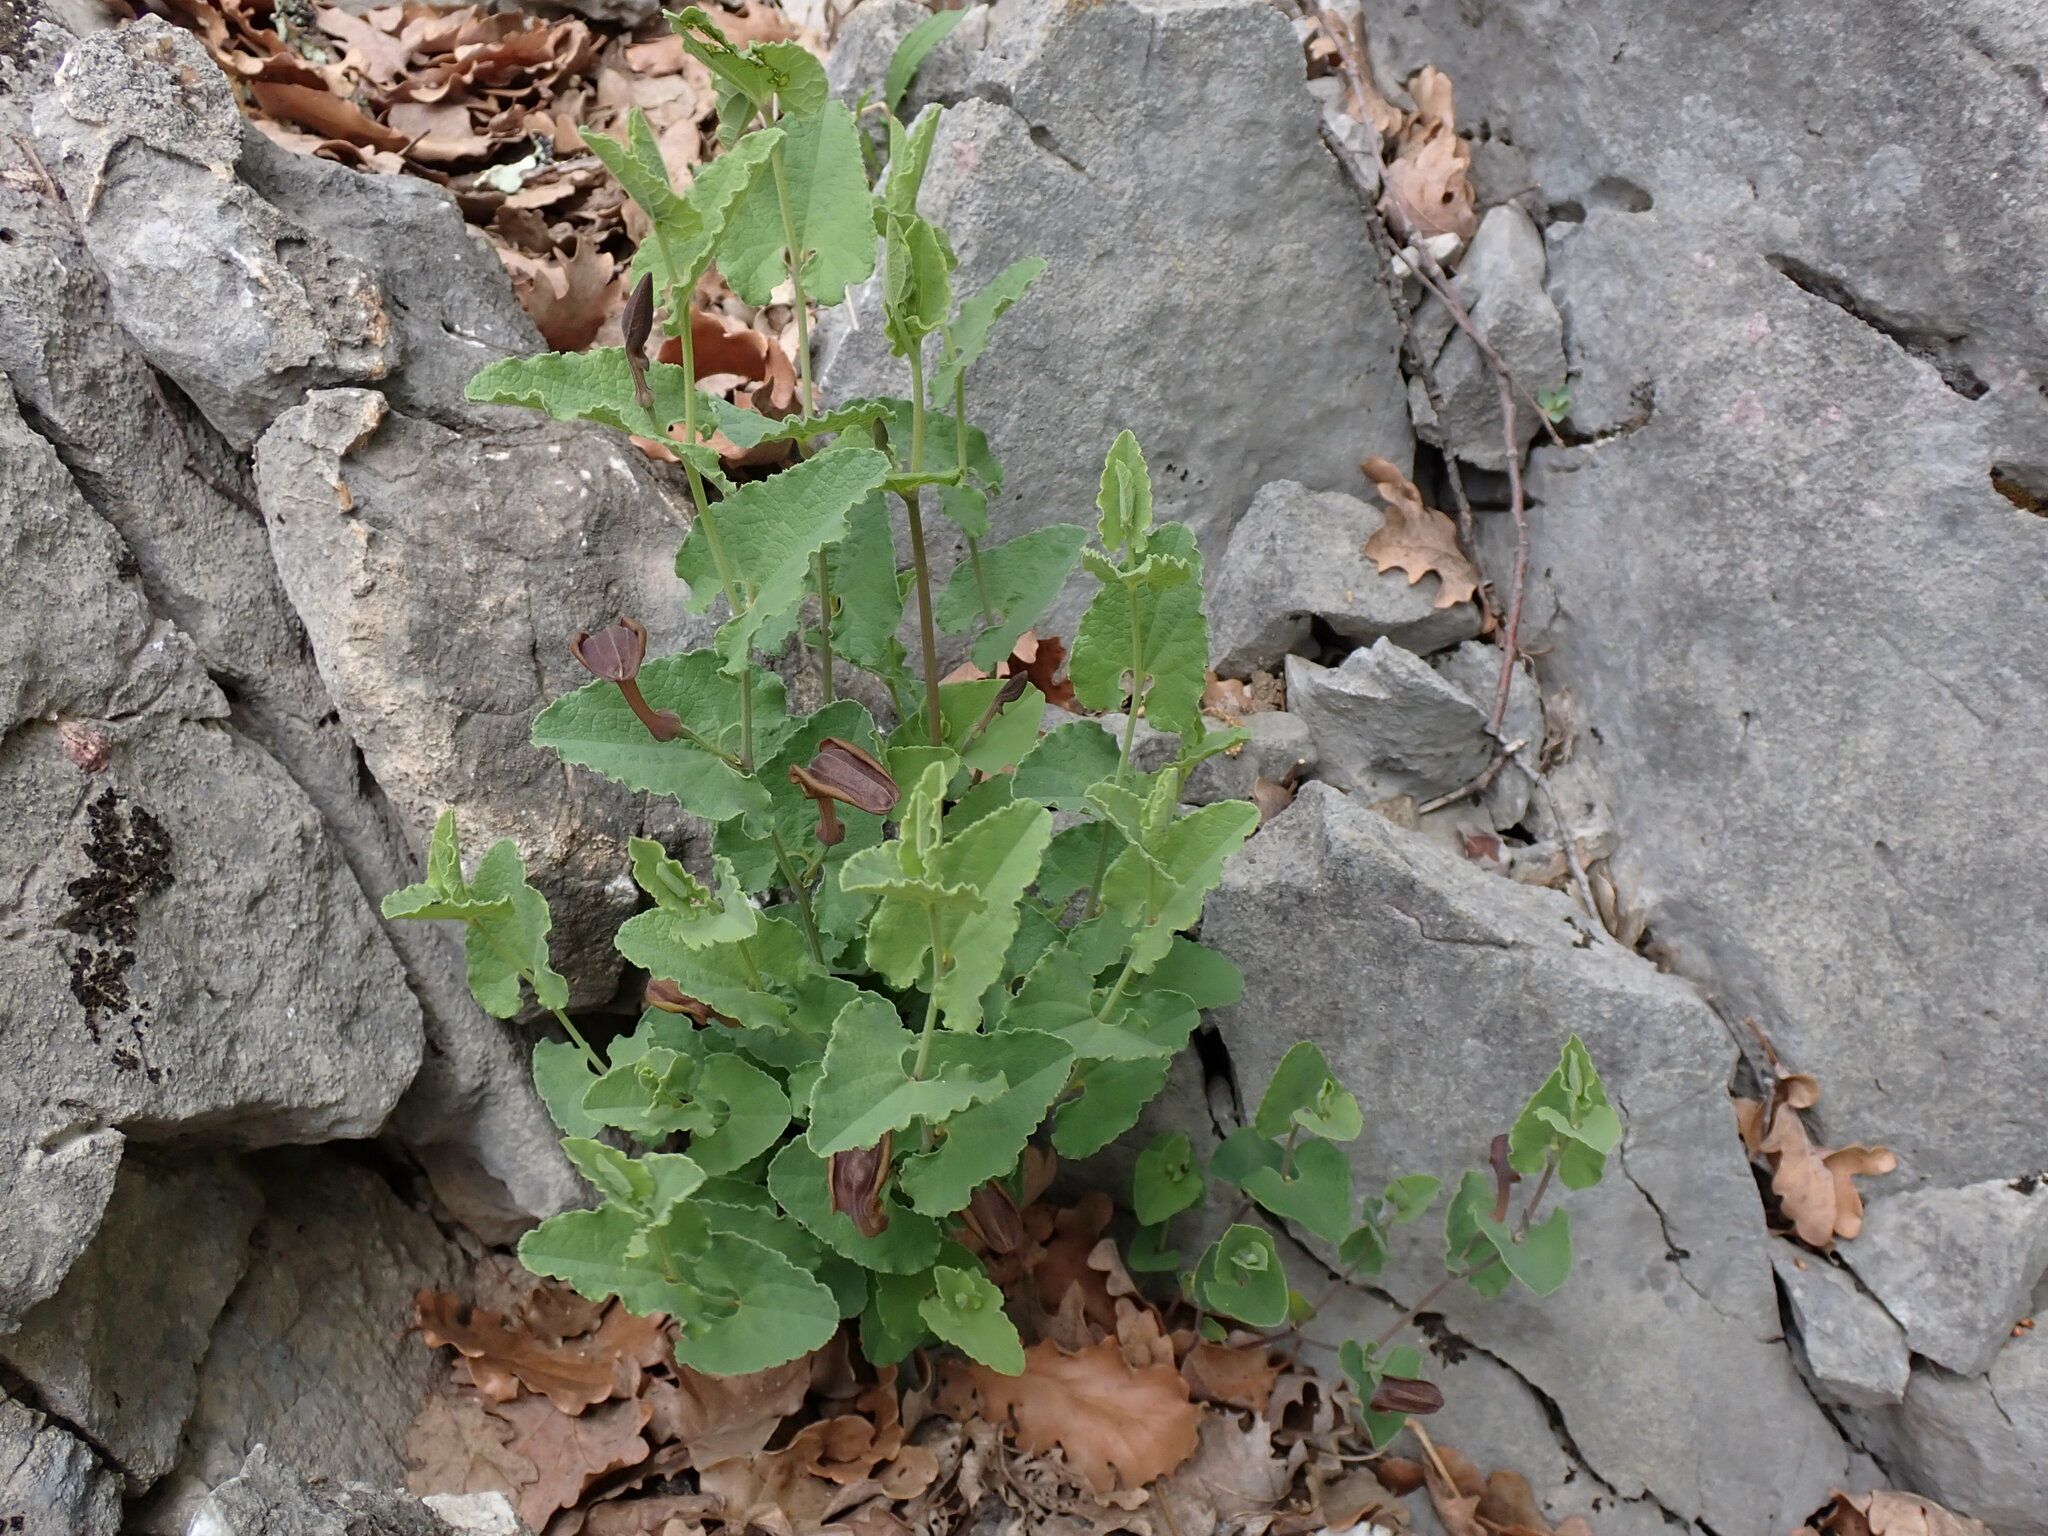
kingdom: Plantae
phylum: Tracheophyta
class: Magnoliopsida
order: Piperales
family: Aristolochiaceae
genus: Aristolochia
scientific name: Aristolochia pistolochia
